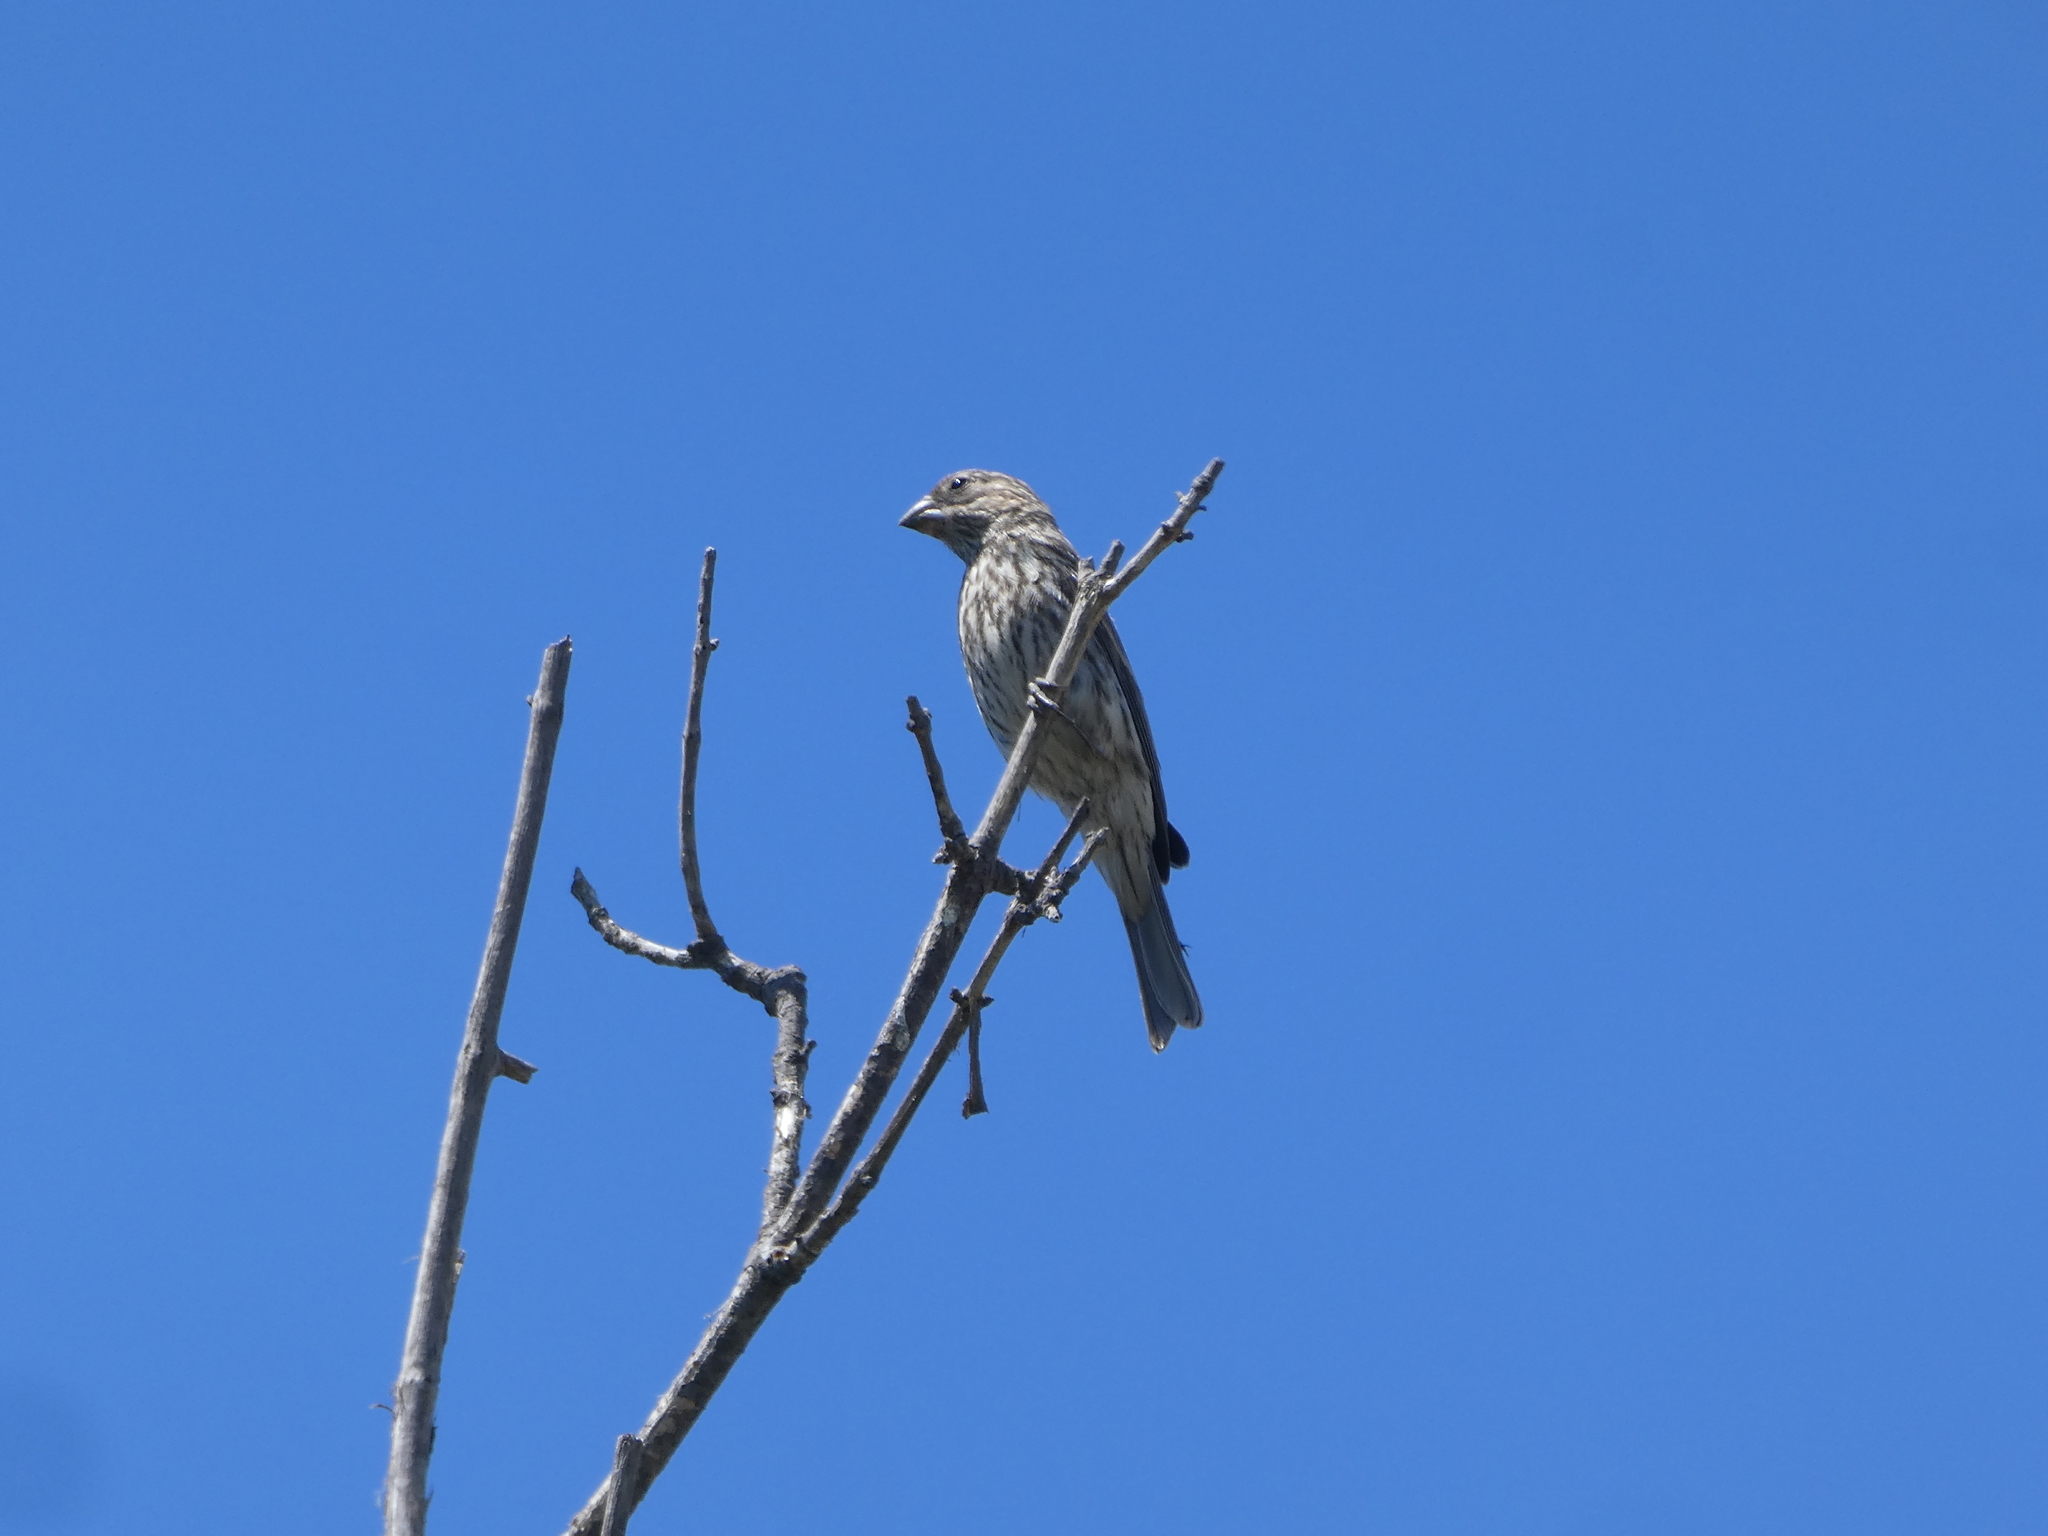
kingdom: Animalia
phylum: Chordata
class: Aves
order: Passeriformes
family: Fringillidae
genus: Haemorhous
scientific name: Haemorhous mexicanus
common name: House finch
